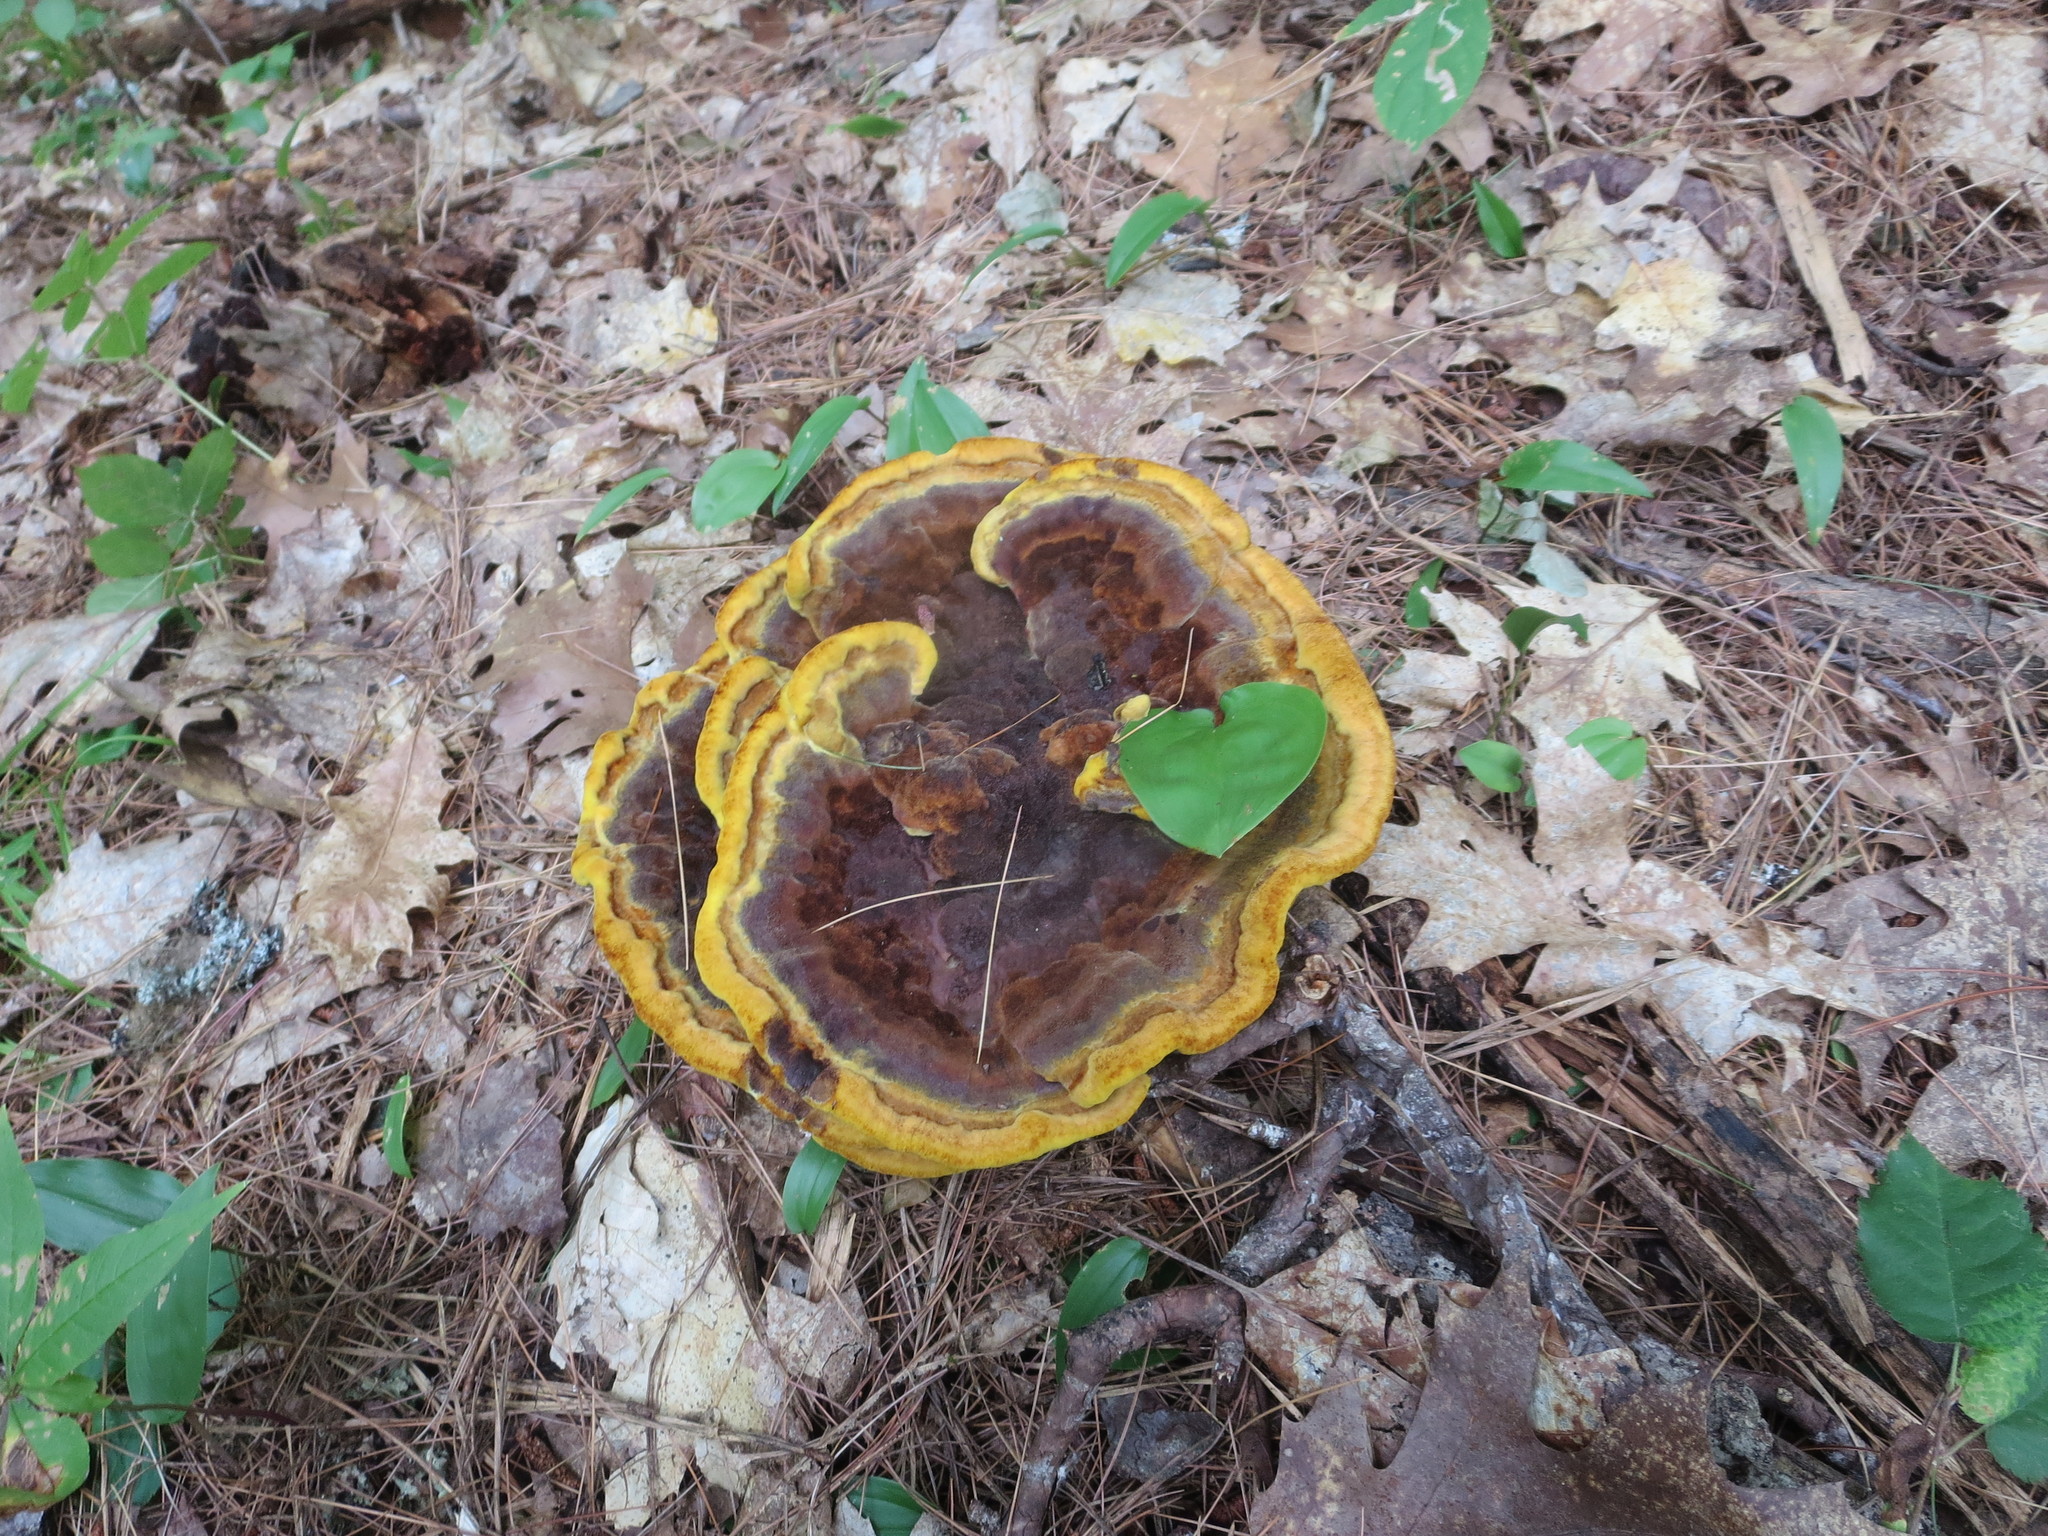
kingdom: Fungi
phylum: Basidiomycota
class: Agaricomycetes
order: Polyporales
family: Laetiporaceae
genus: Phaeolus
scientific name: Phaeolus schweinitzii
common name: Dyer's mazegill
